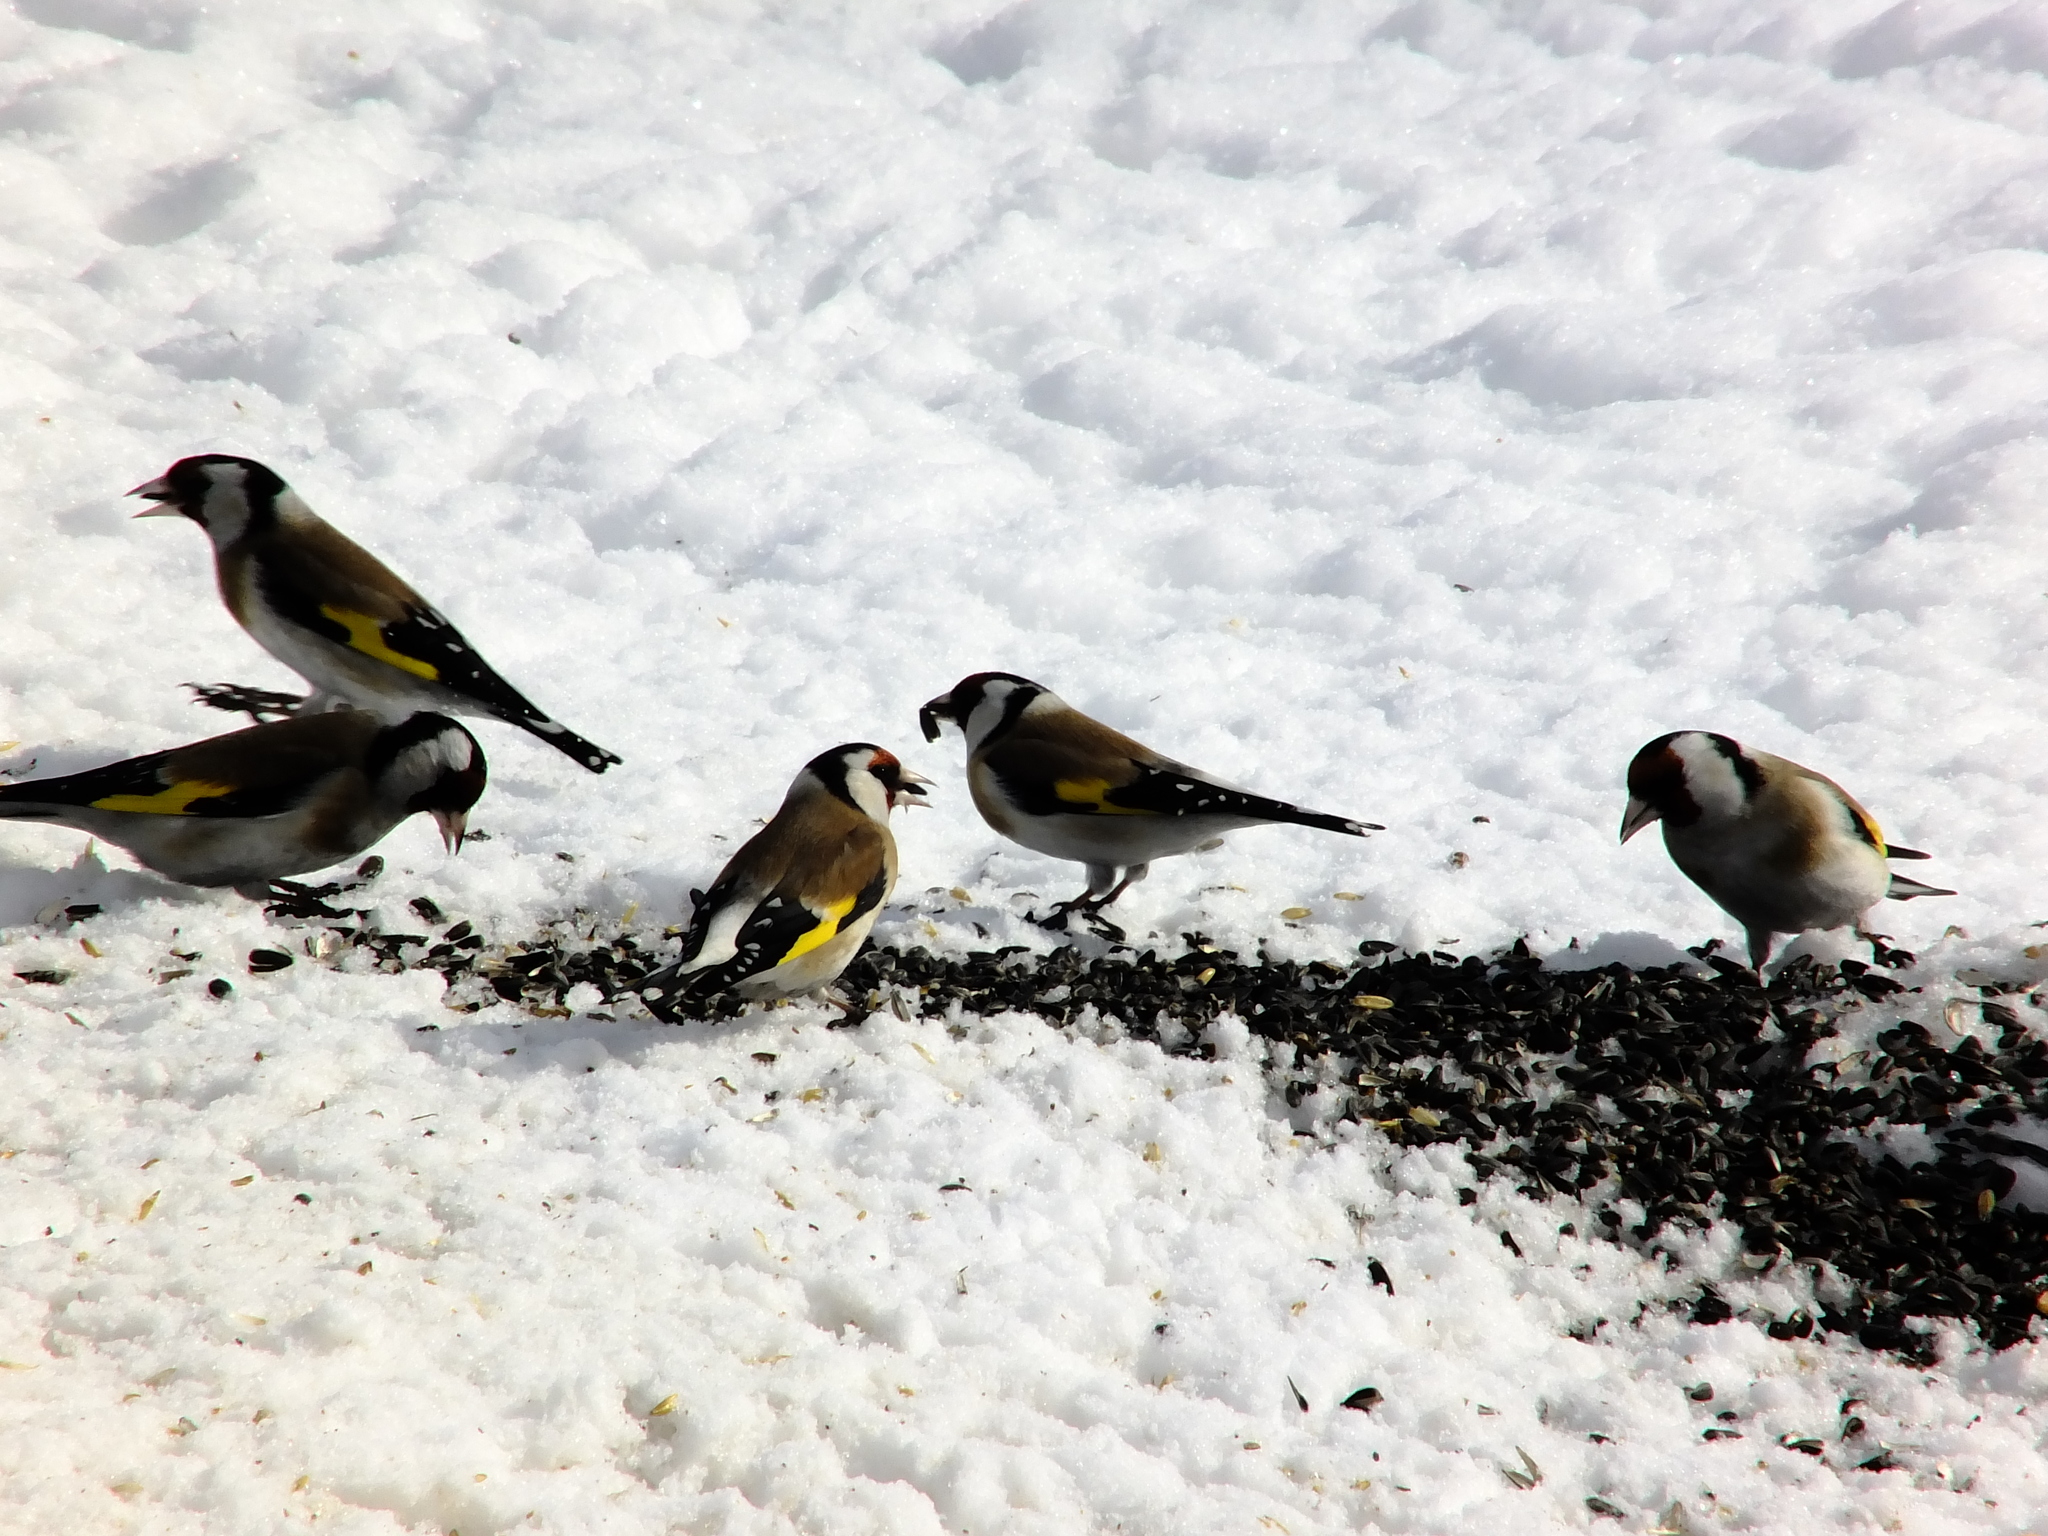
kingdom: Animalia
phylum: Chordata
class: Aves
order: Passeriformes
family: Fringillidae
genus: Carduelis
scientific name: Carduelis carduelis
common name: European goldfinch
